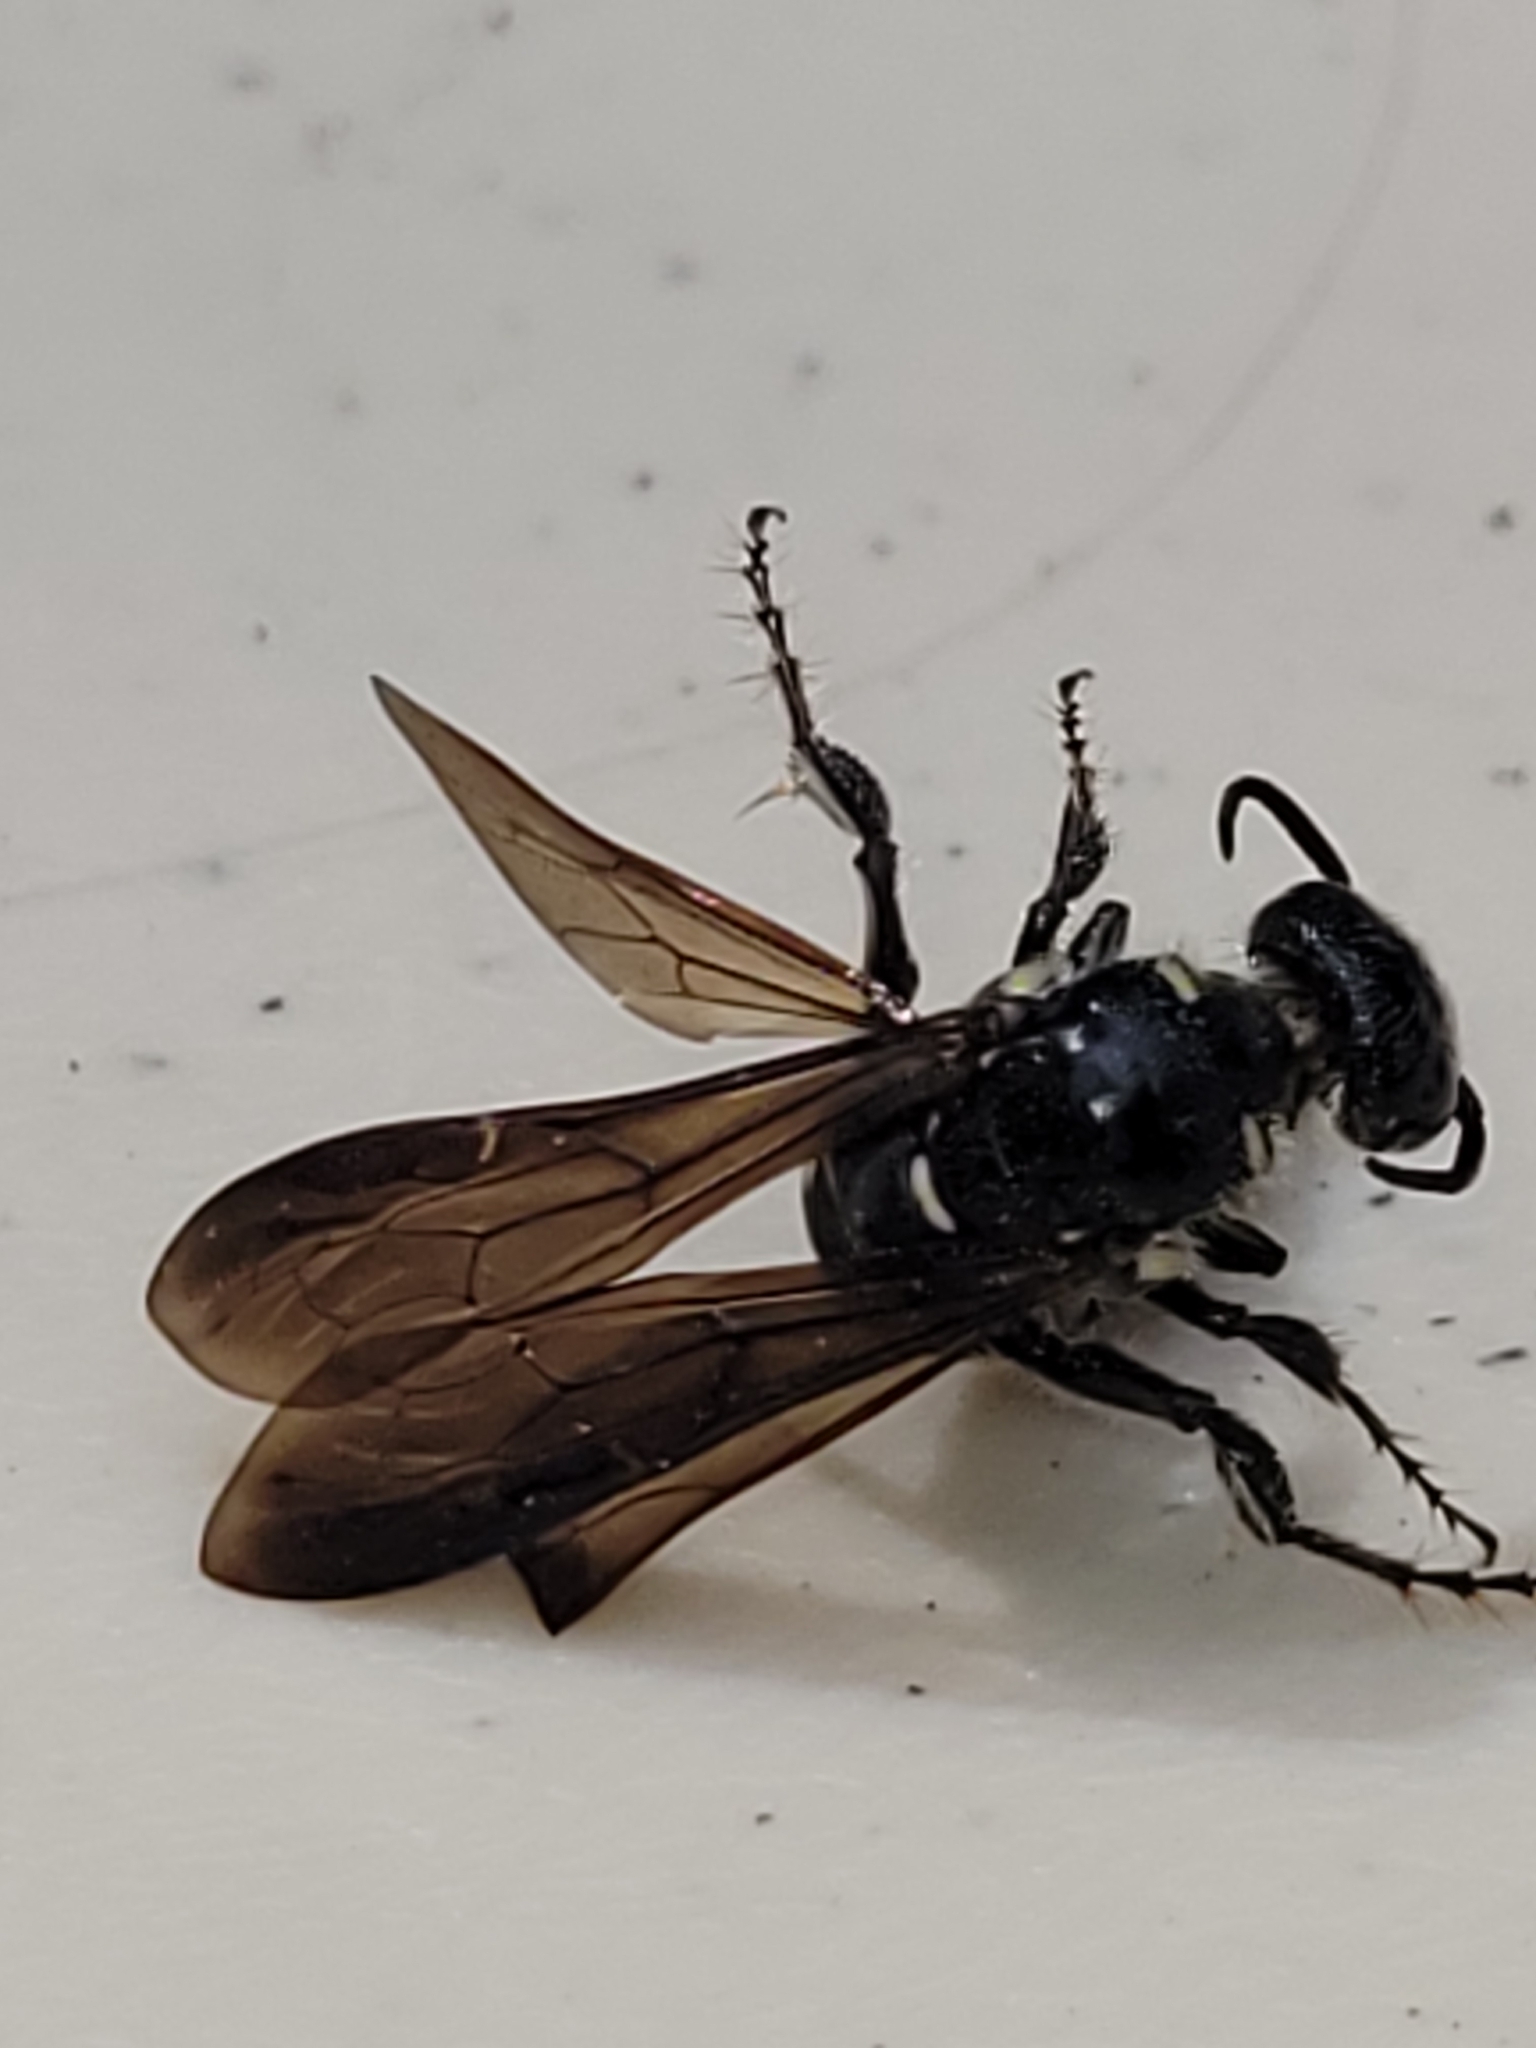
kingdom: Animalia
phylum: Arthropoda
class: Insecta
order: Hymenoptera
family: Tiphiidae
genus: Myzinum
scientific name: Myzinum obscurum
